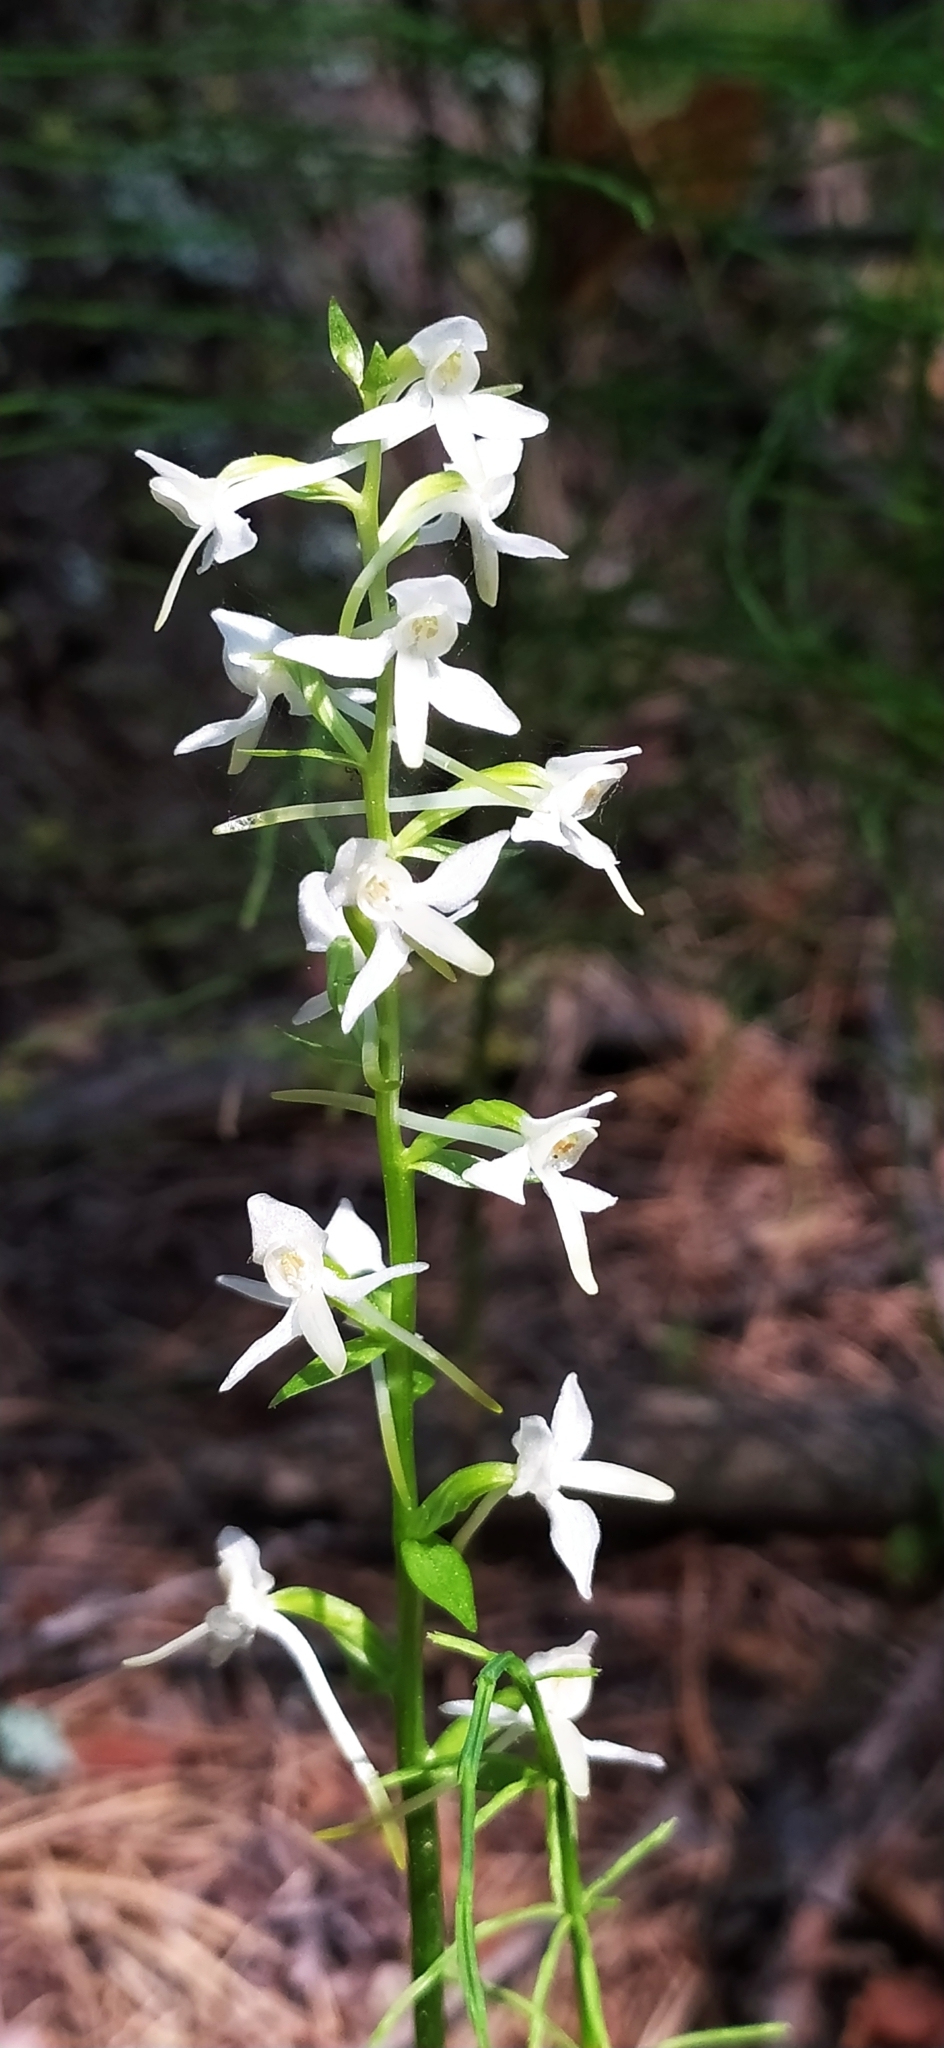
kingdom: Plantae
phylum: Tracheophyta
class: Liliopsida
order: Asparagales
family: Orchidaceae
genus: Platanthera
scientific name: Platanthera bifolia
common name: Lesser butterfly-orchid
